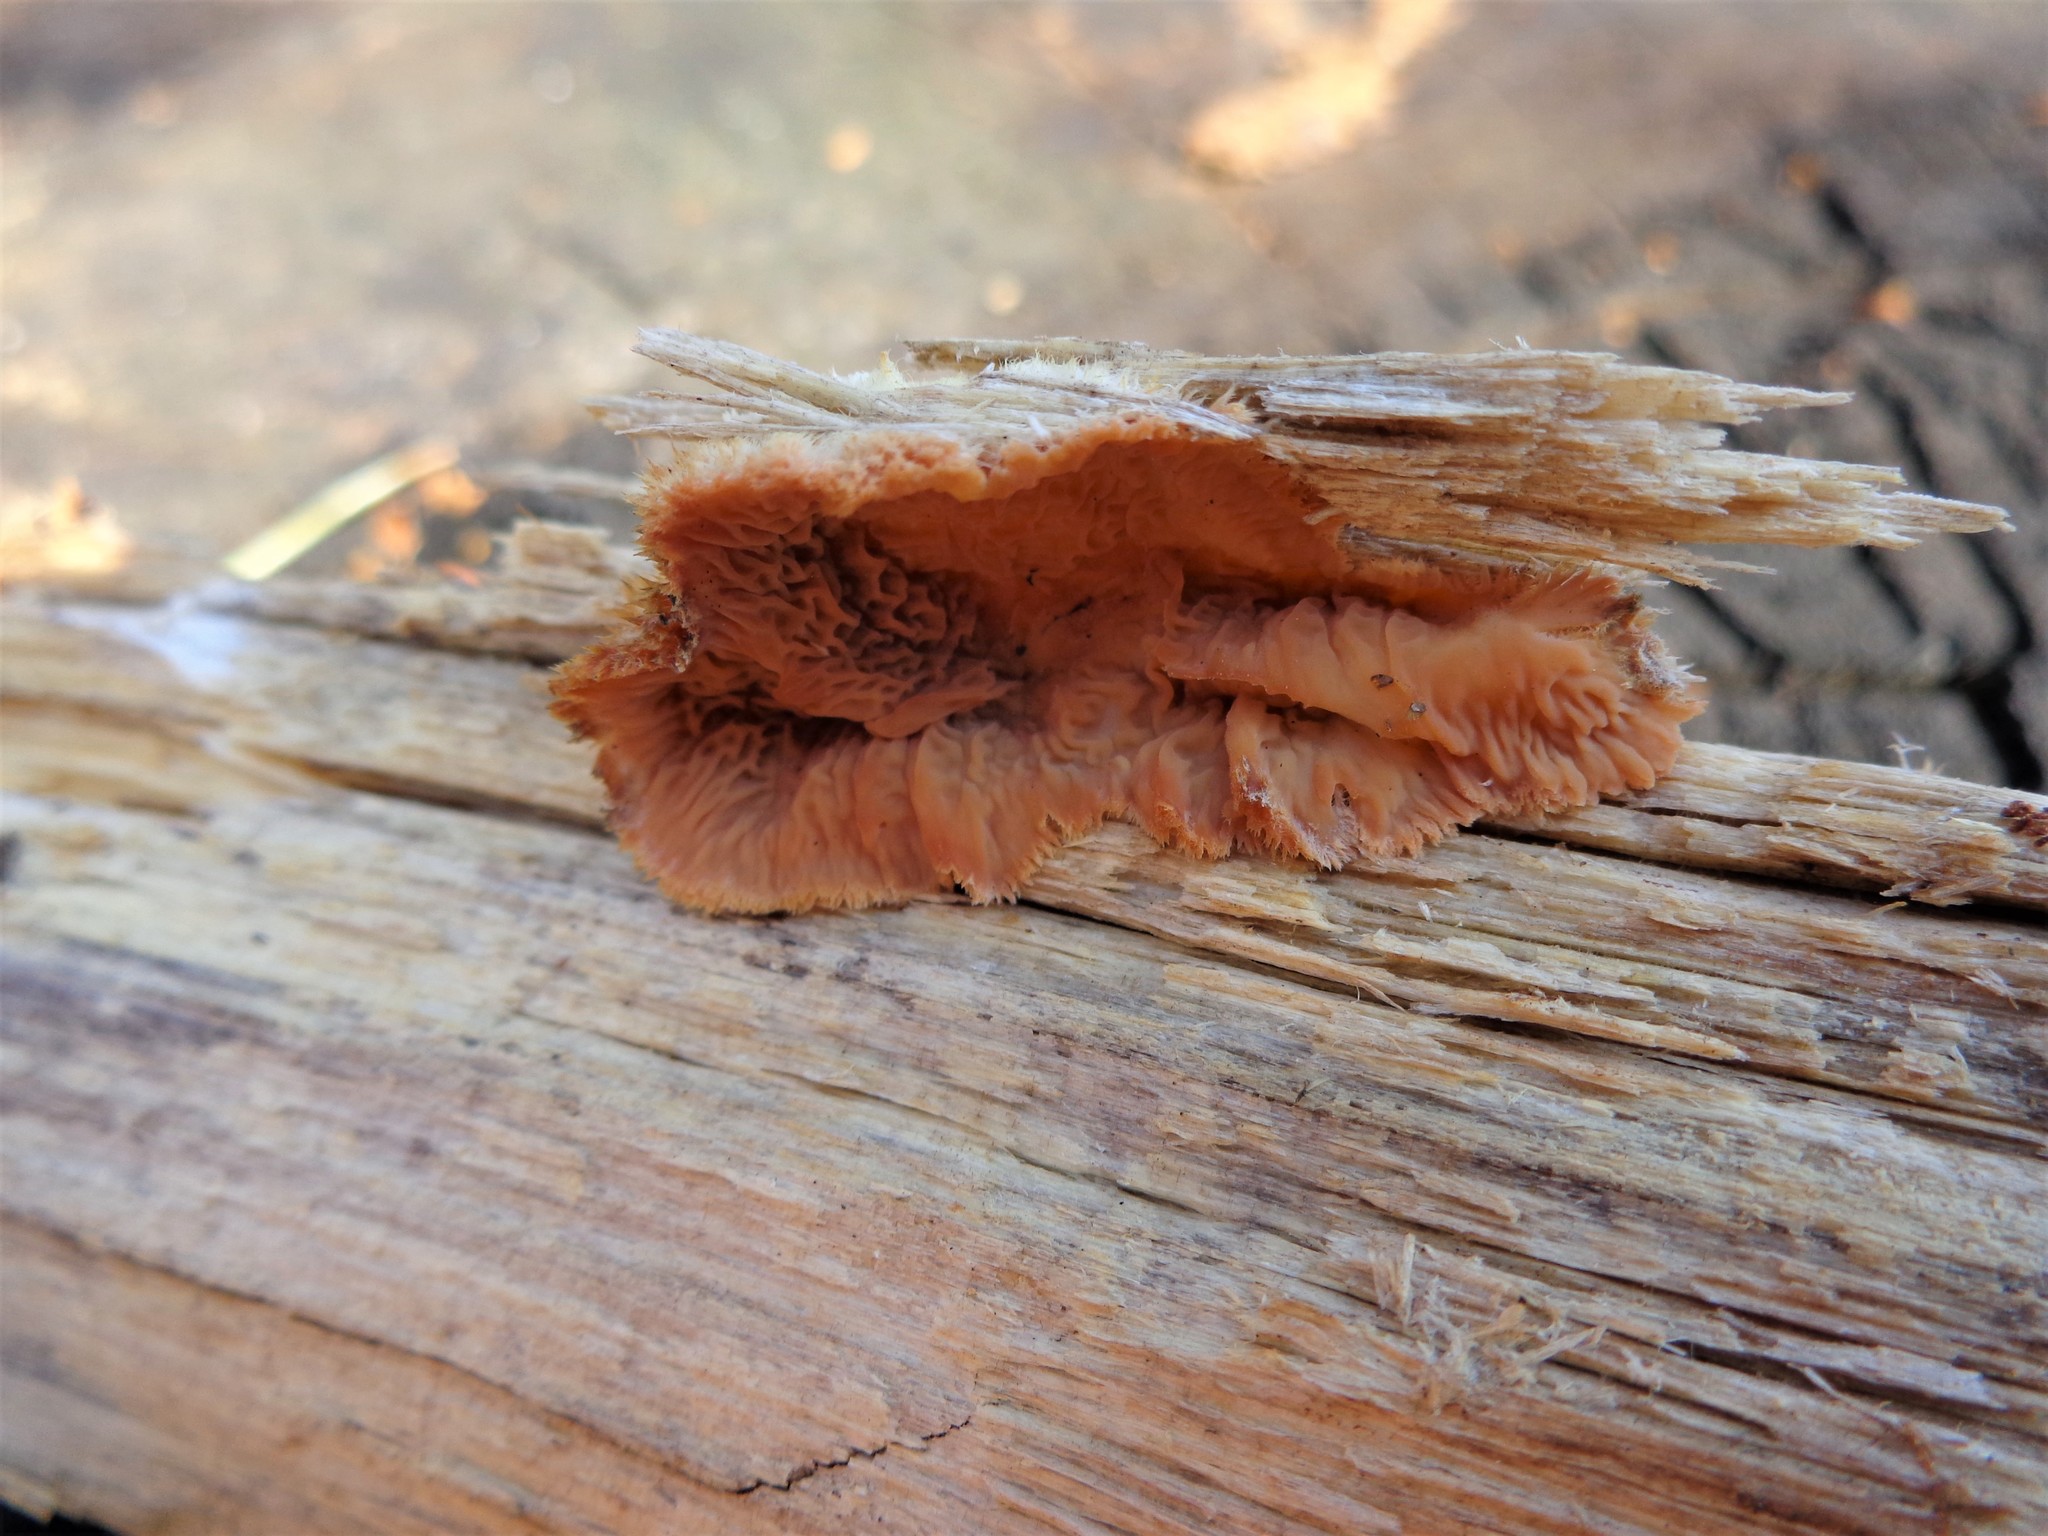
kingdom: Fungi
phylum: Basidiomycota
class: Agaricomycetes
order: Polyporales
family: Meruliaceae
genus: Phlebia
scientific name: Phlebia tremellosa
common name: Jelly rot
